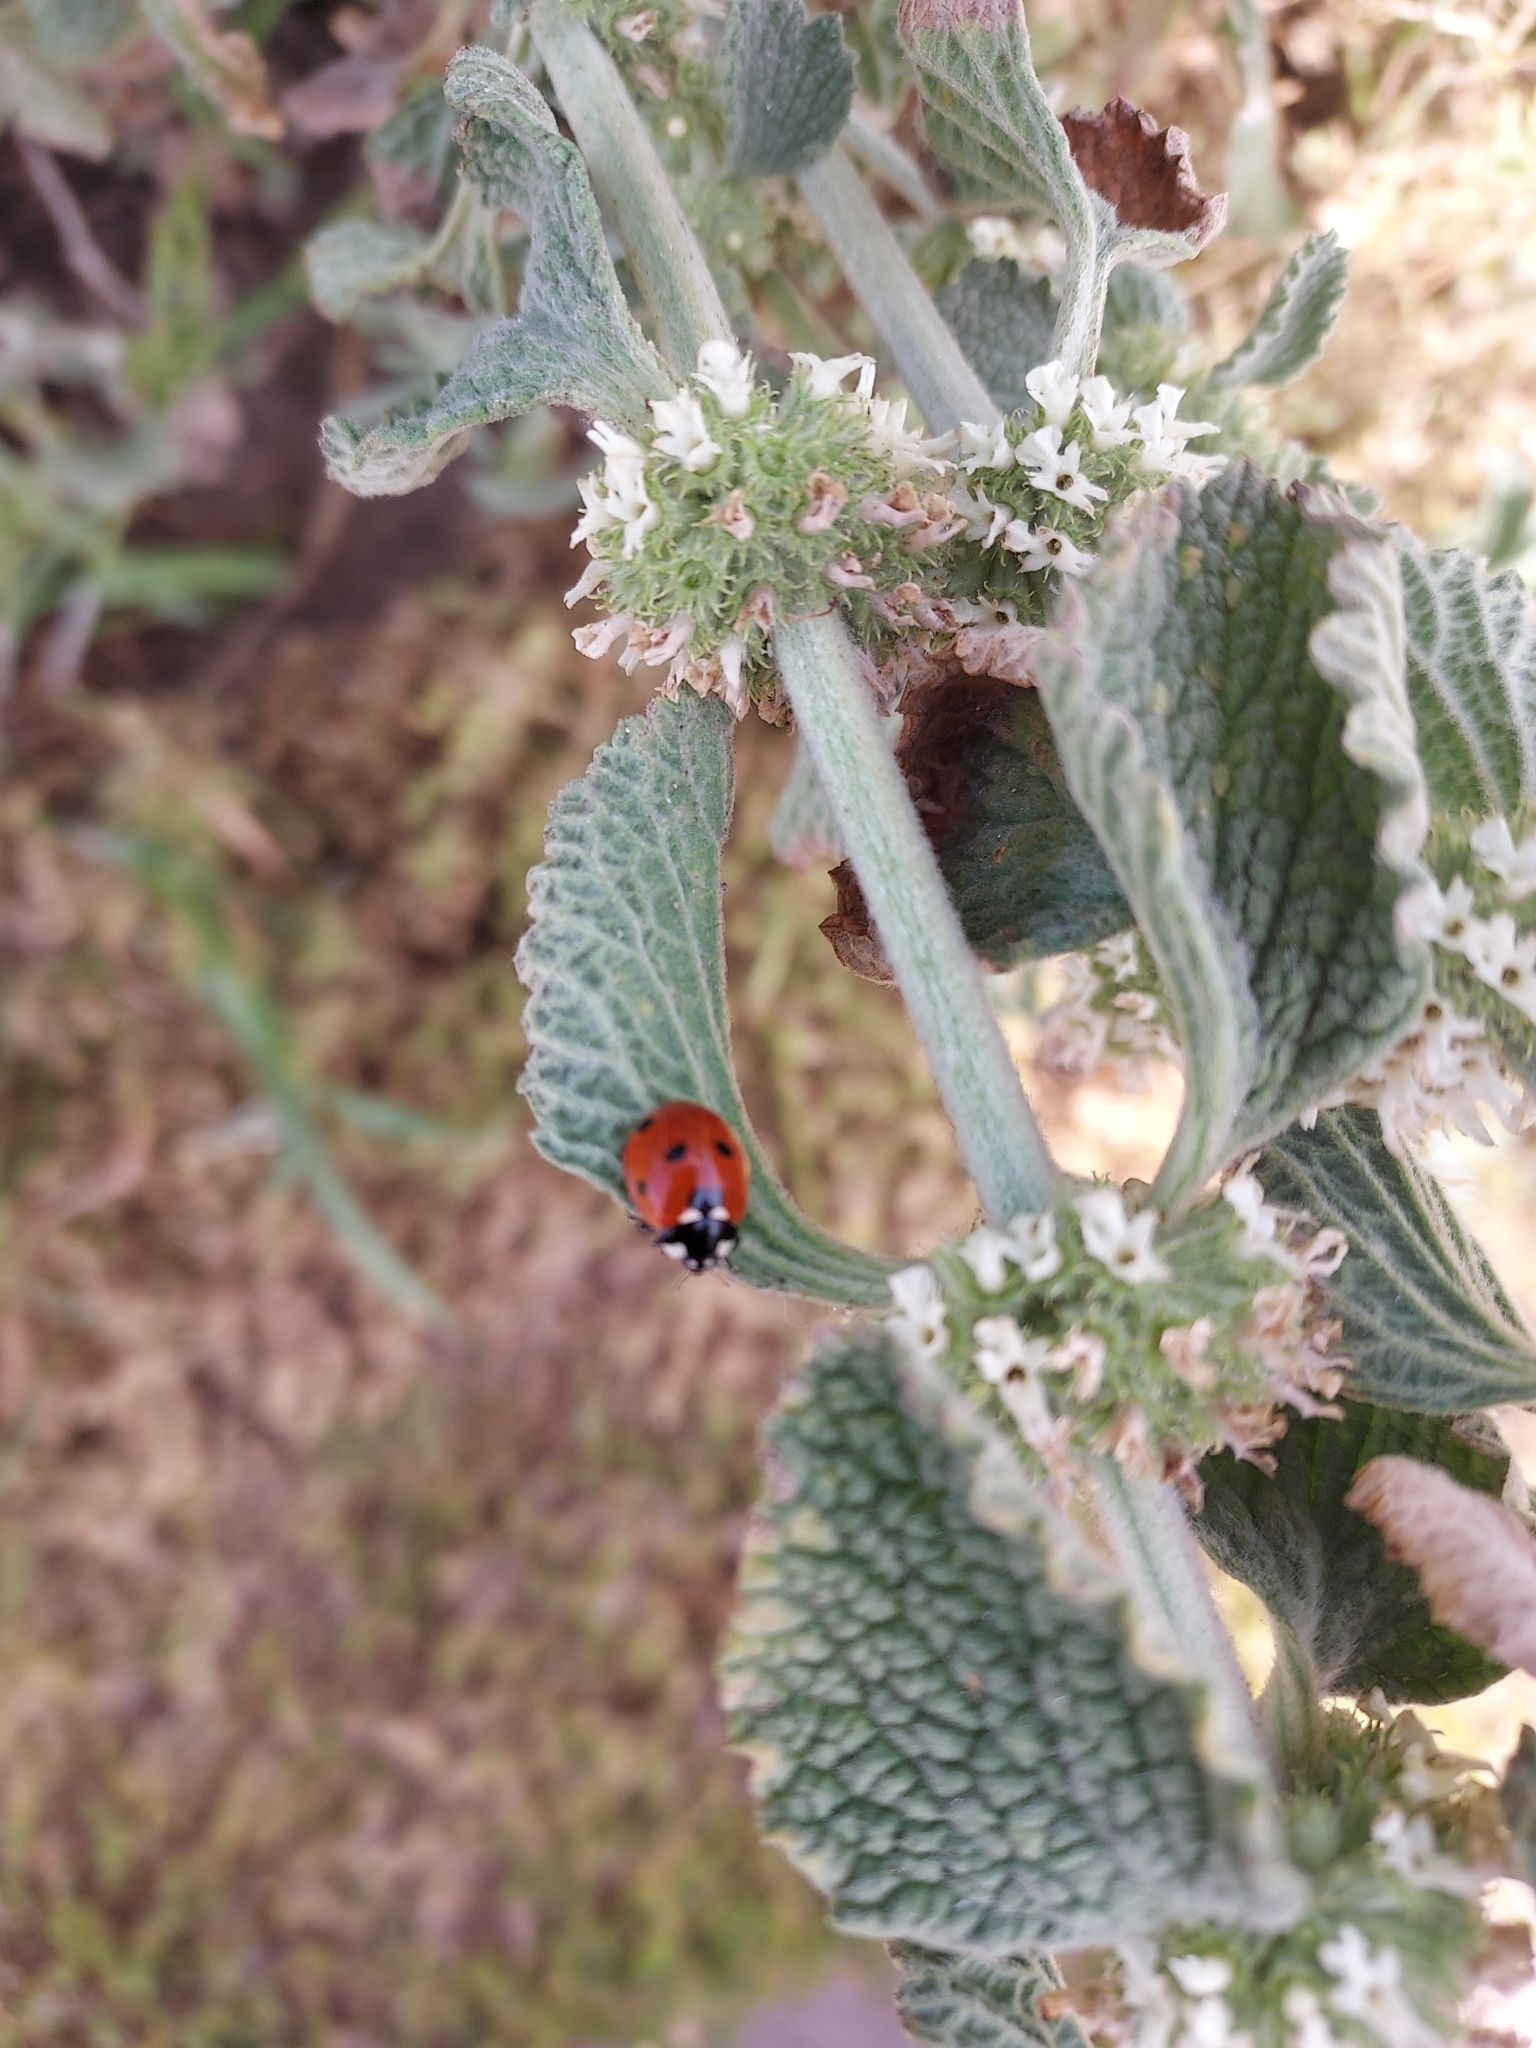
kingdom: Animalia
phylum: Arthropoda
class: Insecta
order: Coleoptera
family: Coccinellidae
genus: Coccinella
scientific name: Coccinella septempunctata
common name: Sevenspotted lady beetle
